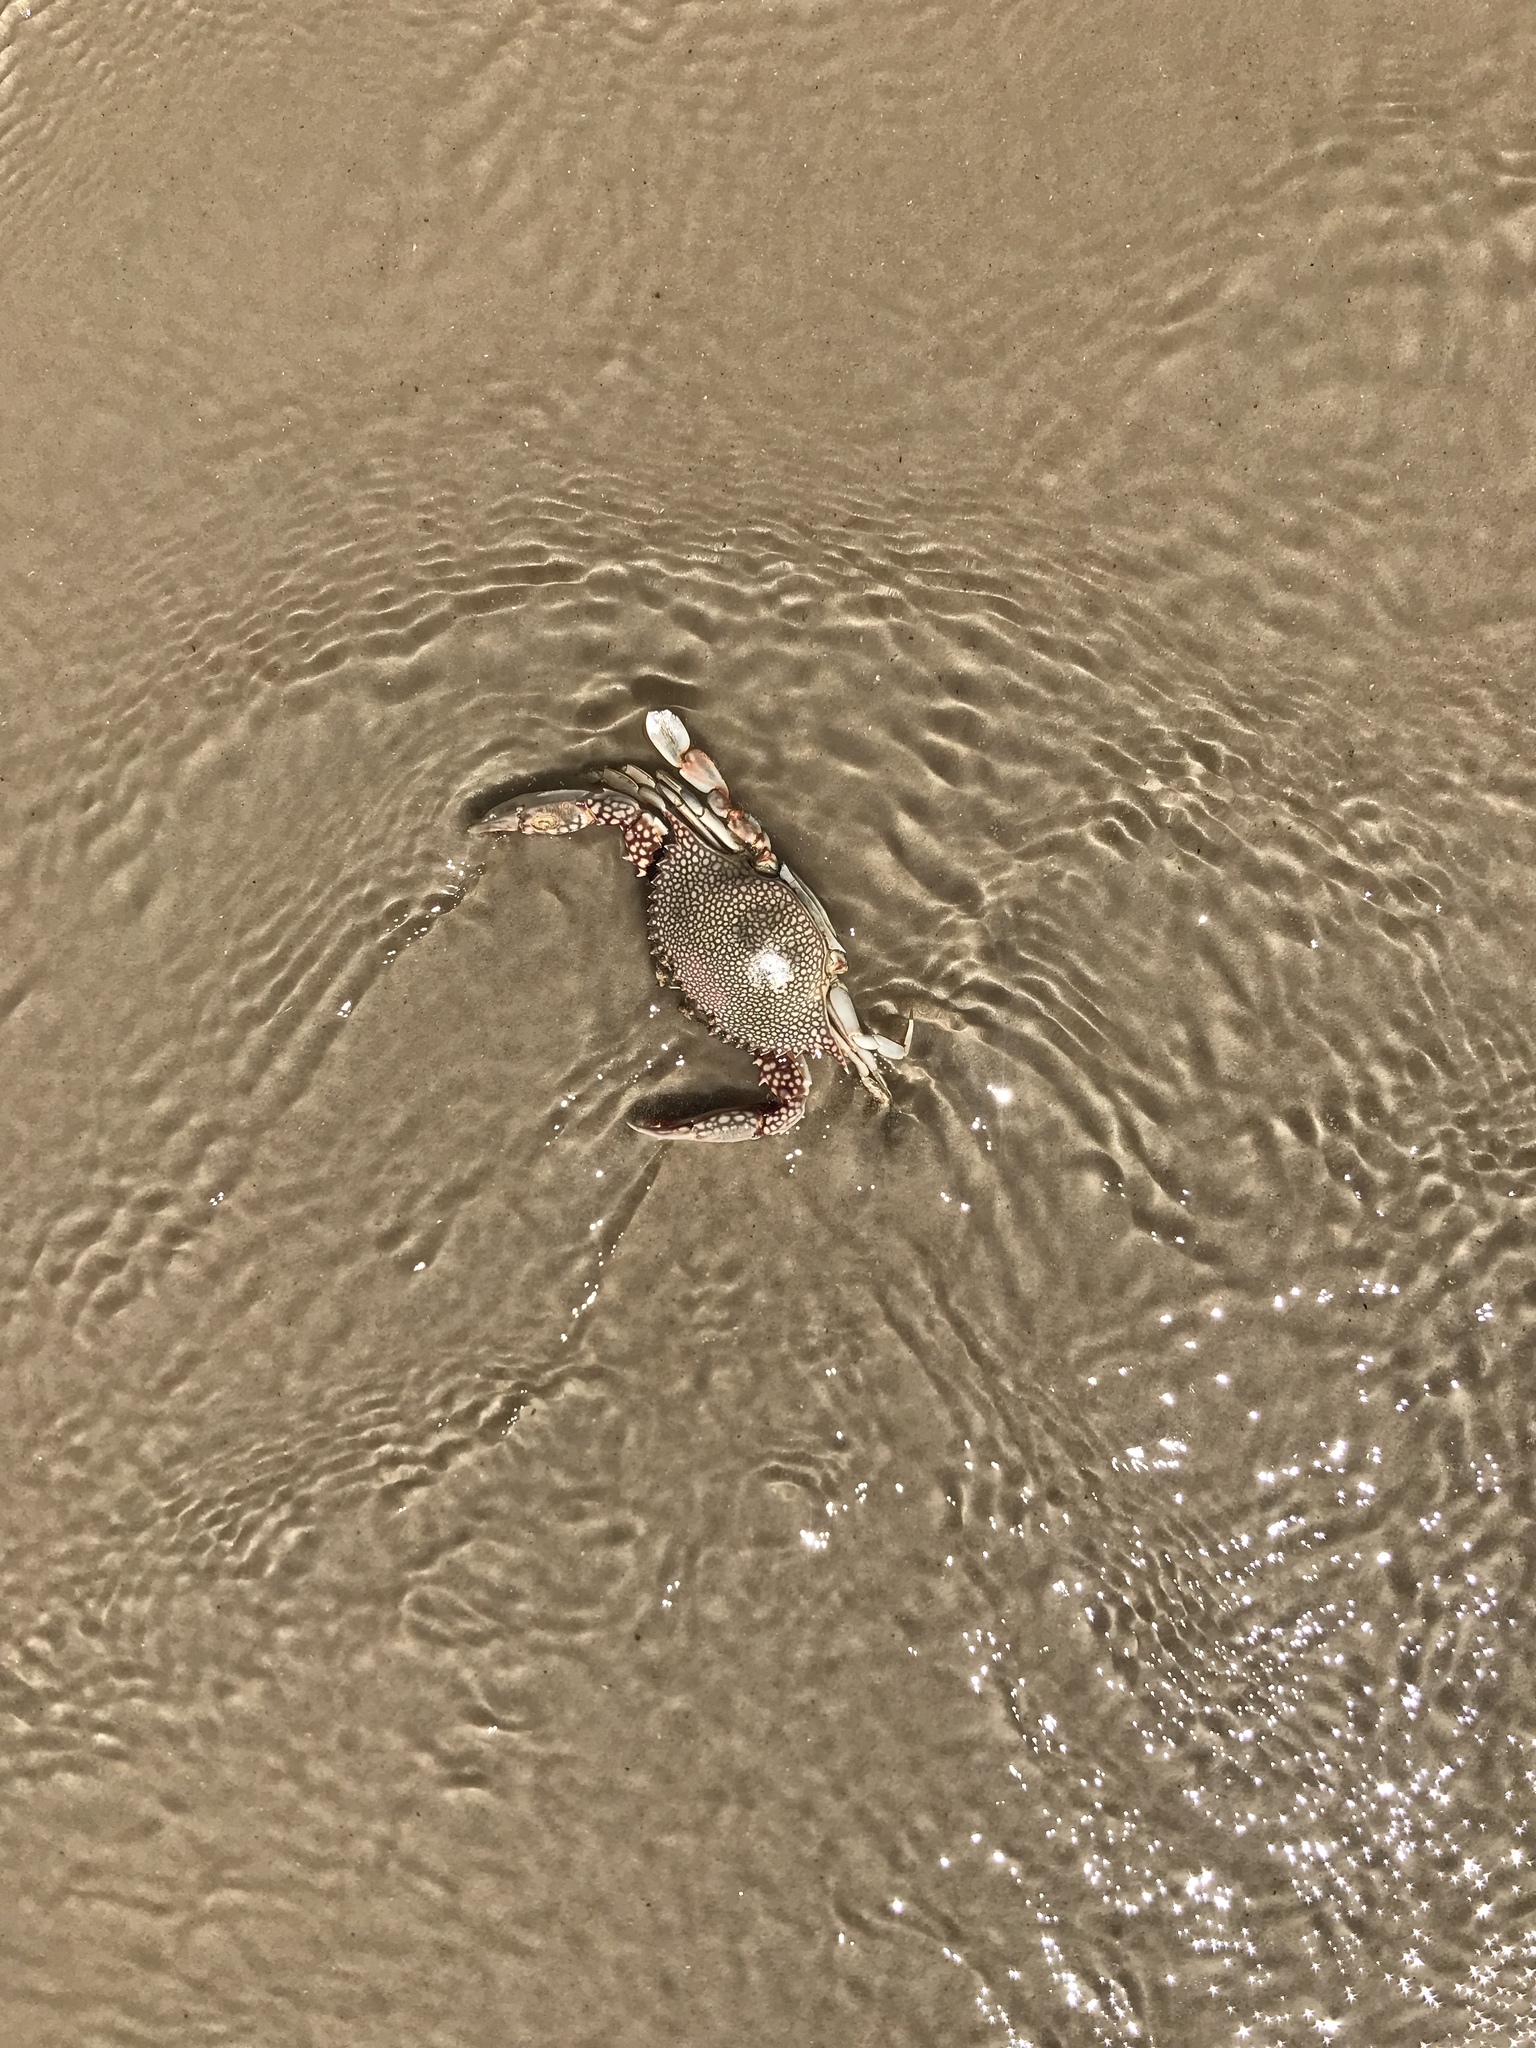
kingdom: Animalia
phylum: Arthropoda
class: Malacostraca
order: Decapoda
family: Portunidae
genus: Arenaeus
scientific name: Arenaeus cribrarius
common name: Speckled crab
